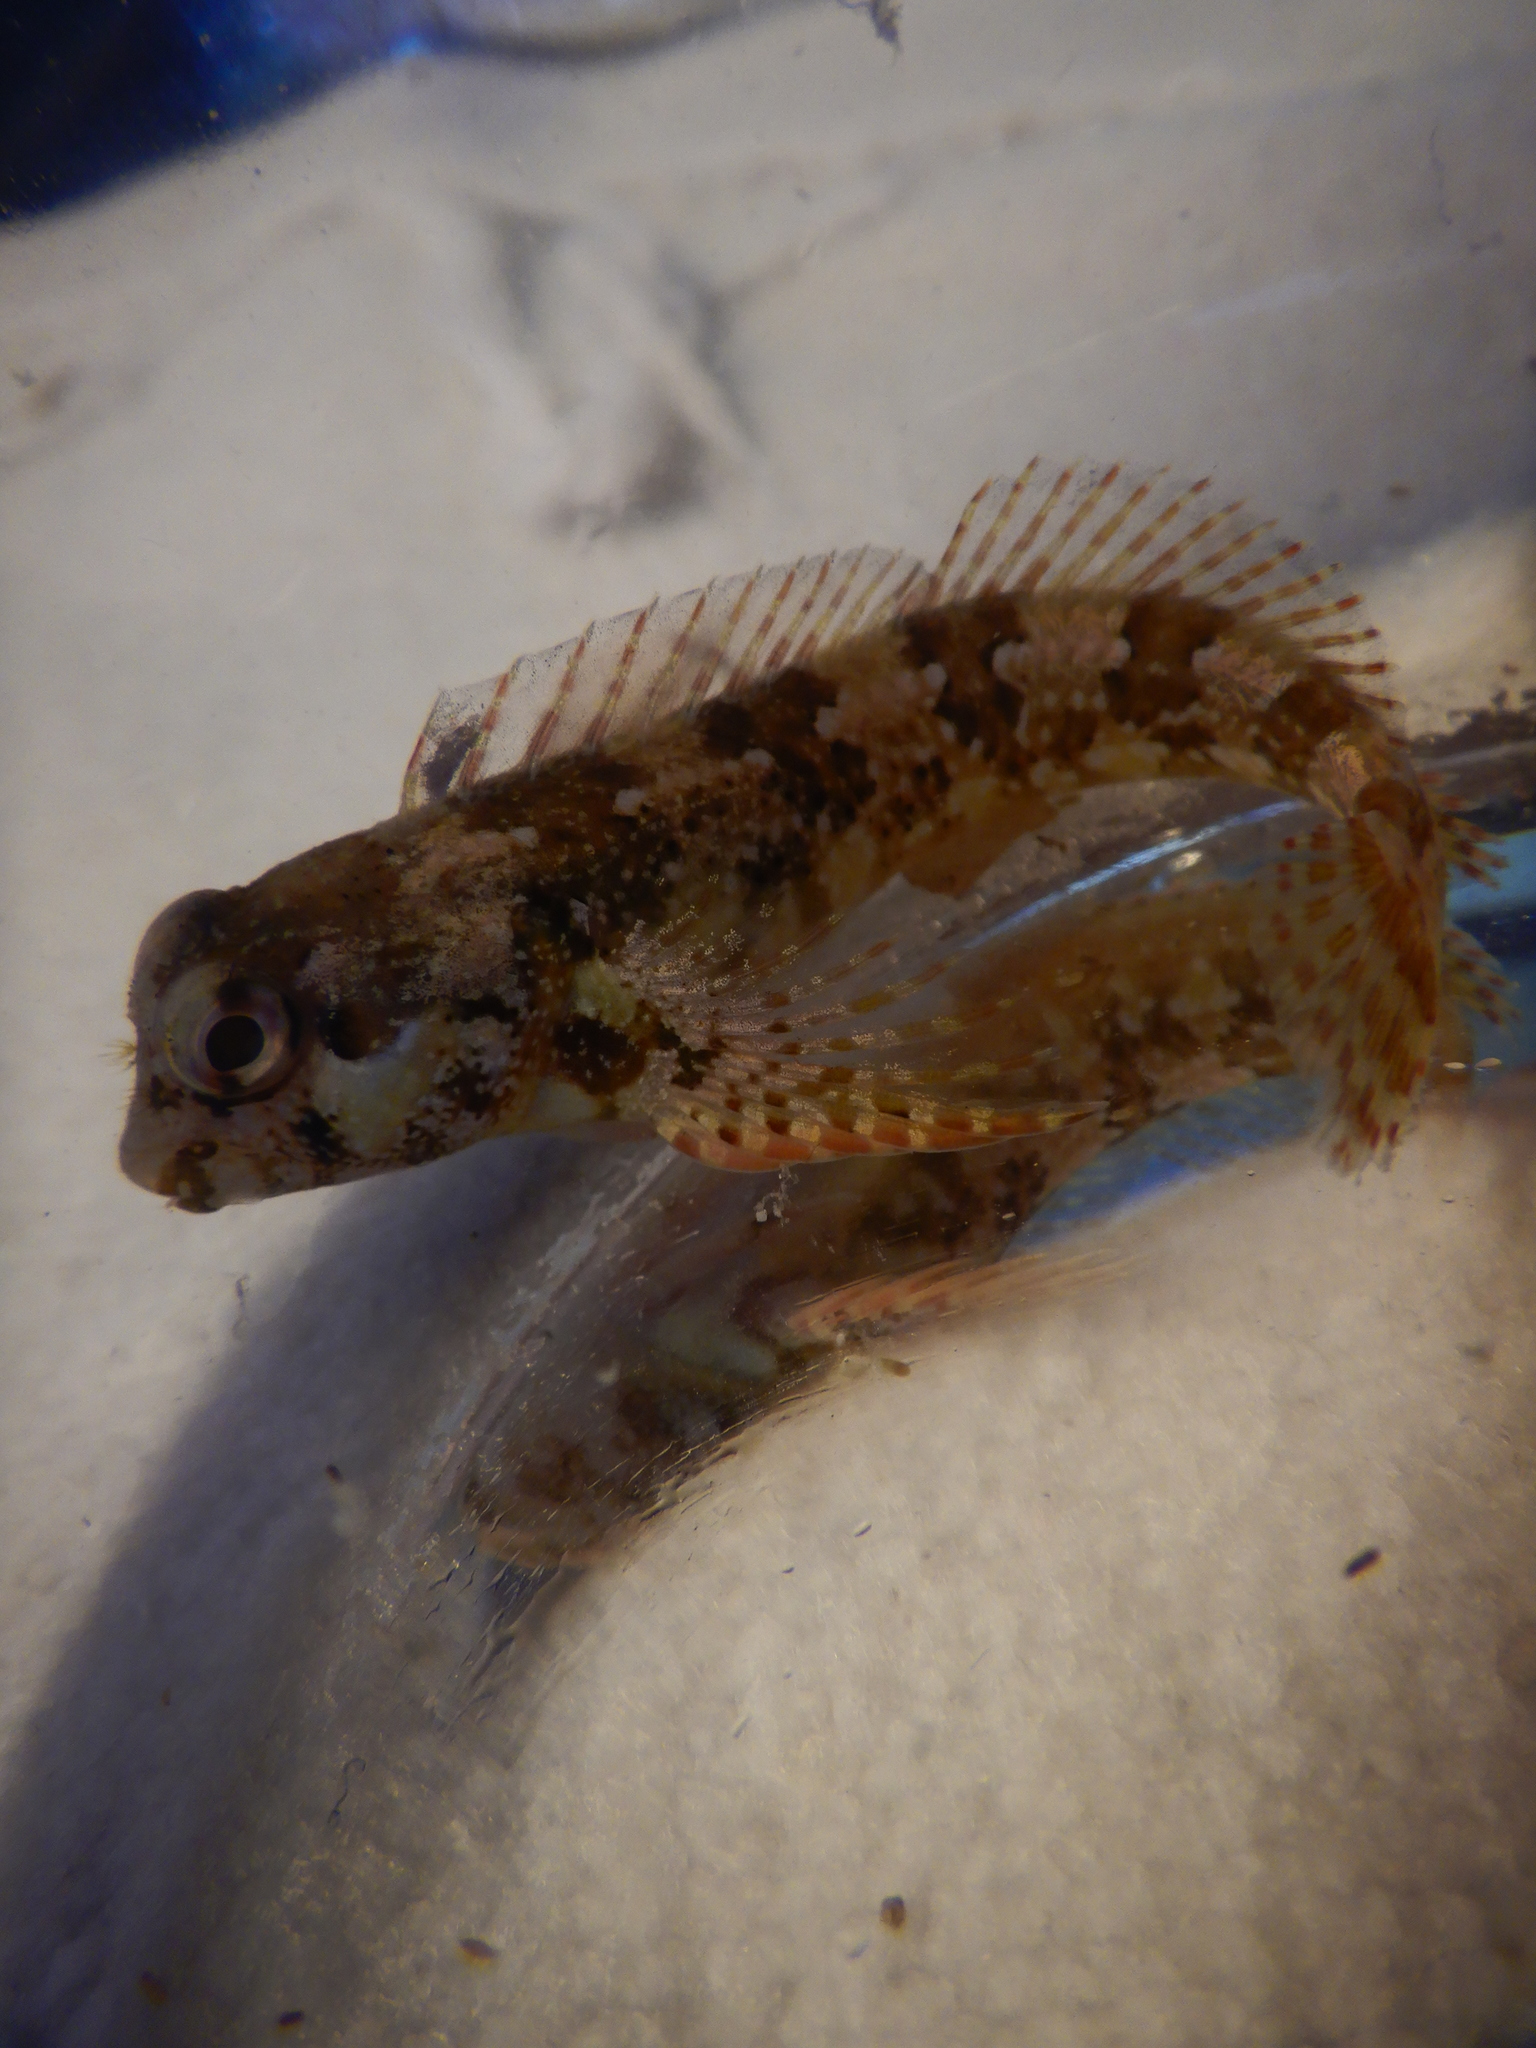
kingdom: Animalia
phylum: Chordata
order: Perciformes
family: Blenniidae
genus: Lipophrys
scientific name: Lipophrys trigloides
